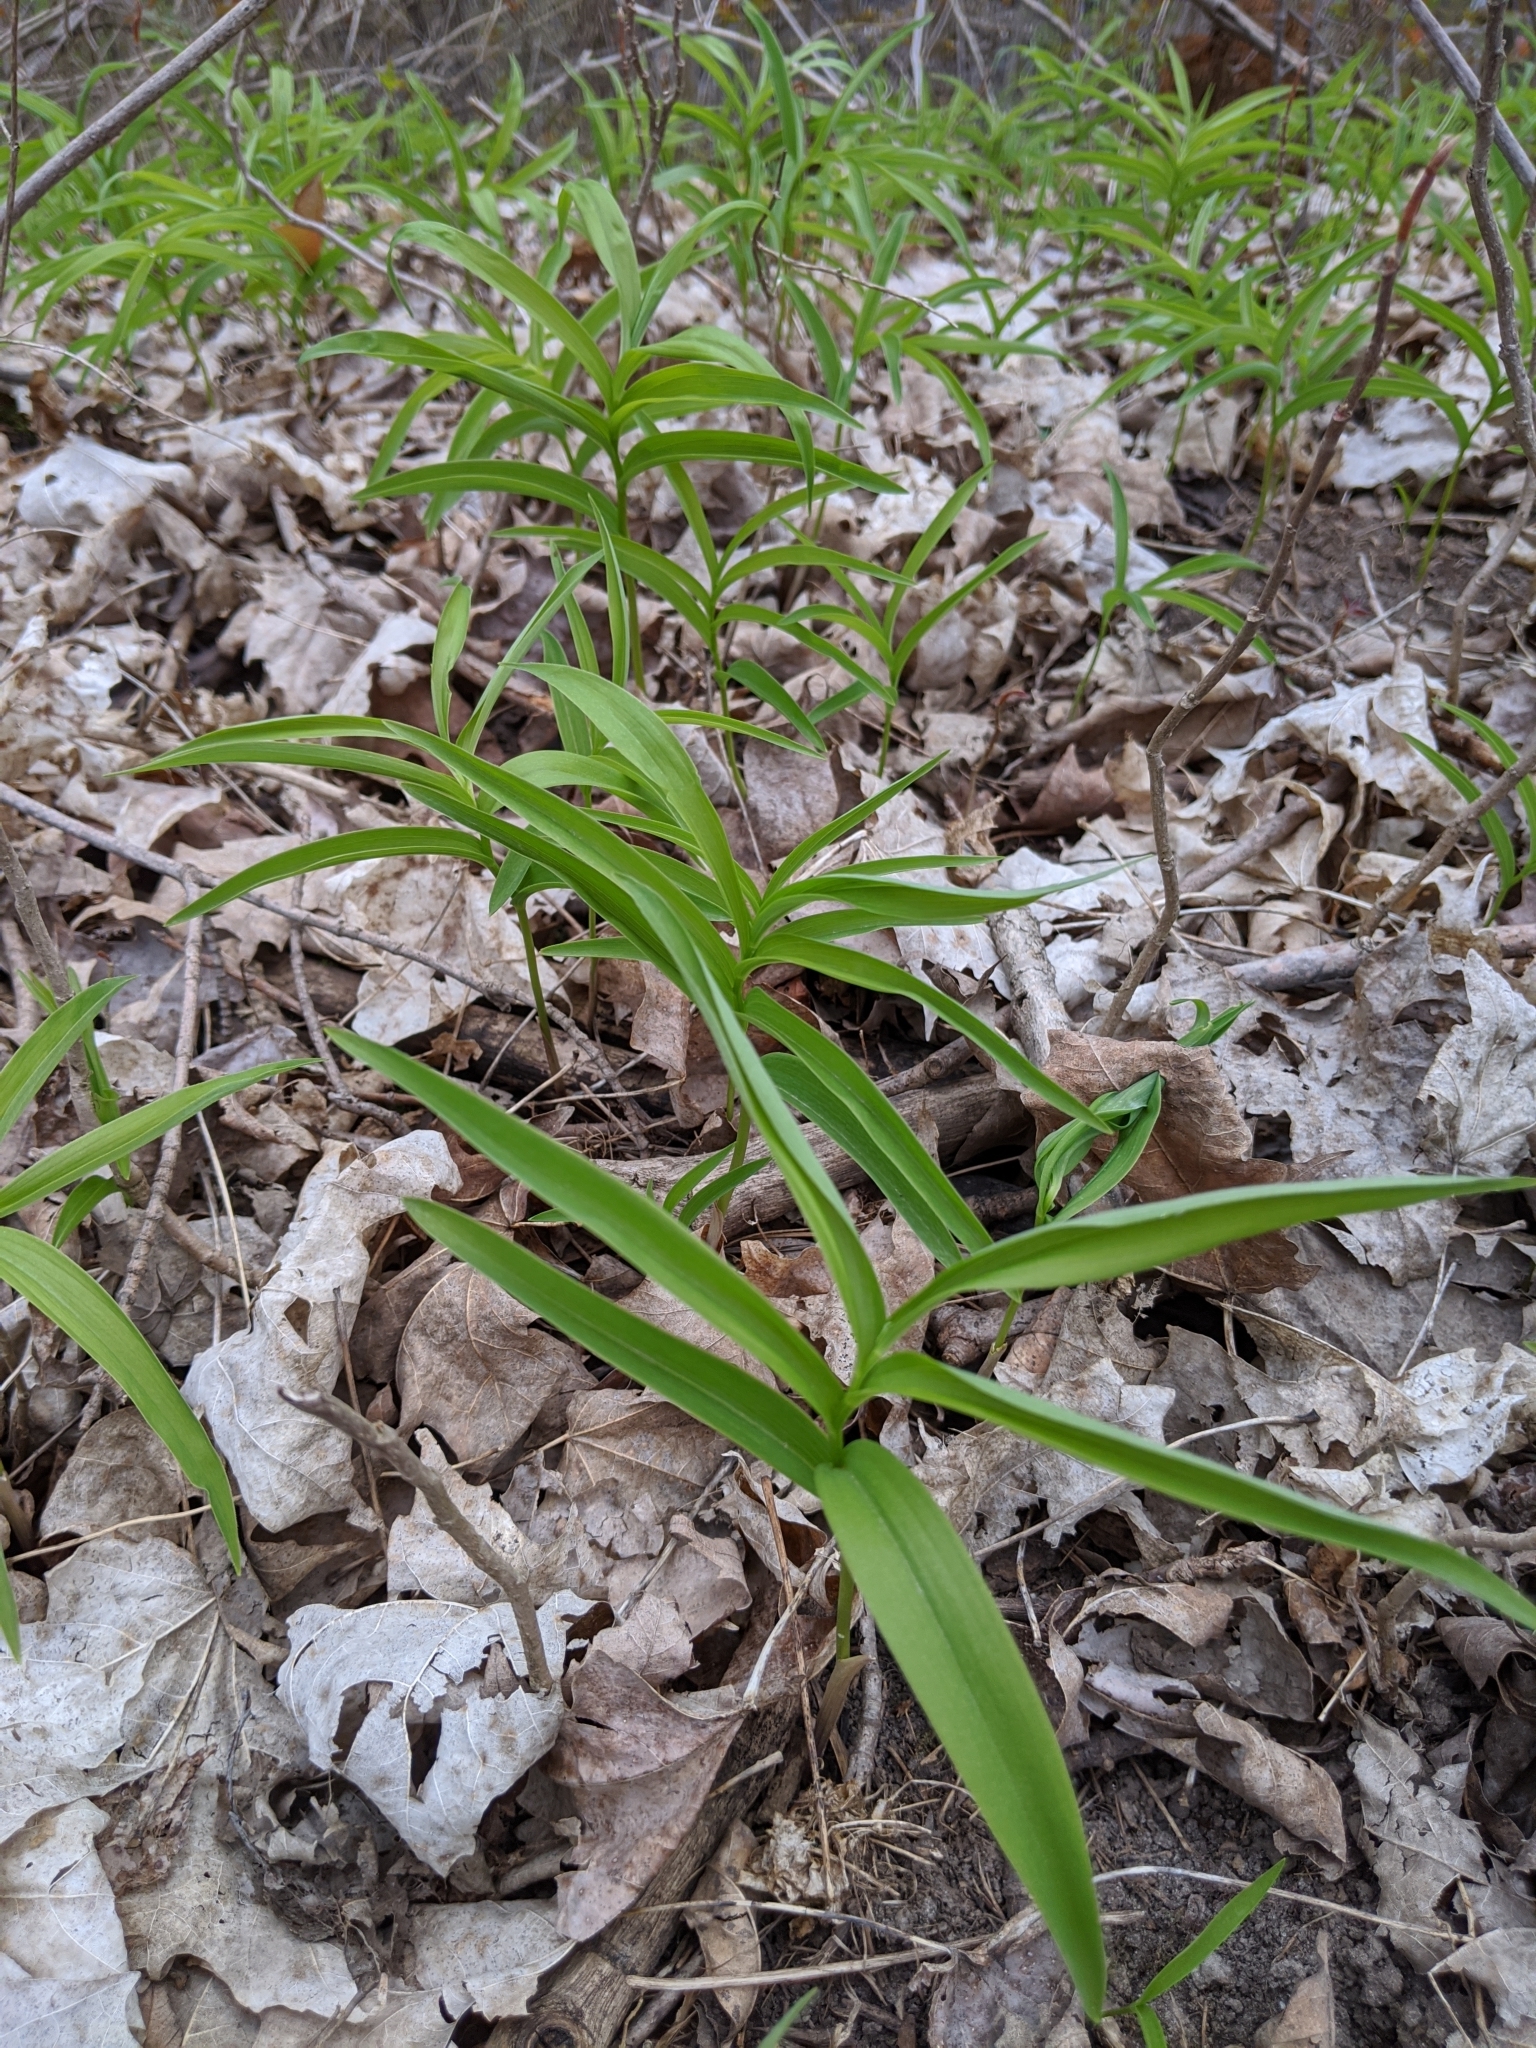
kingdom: Plantae
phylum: Tracheophyta
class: Liliopsida
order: Asparagales
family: Asparagaceae
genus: Maianthemum
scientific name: Maianthemum stellatum
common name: Little false solomon's seal
